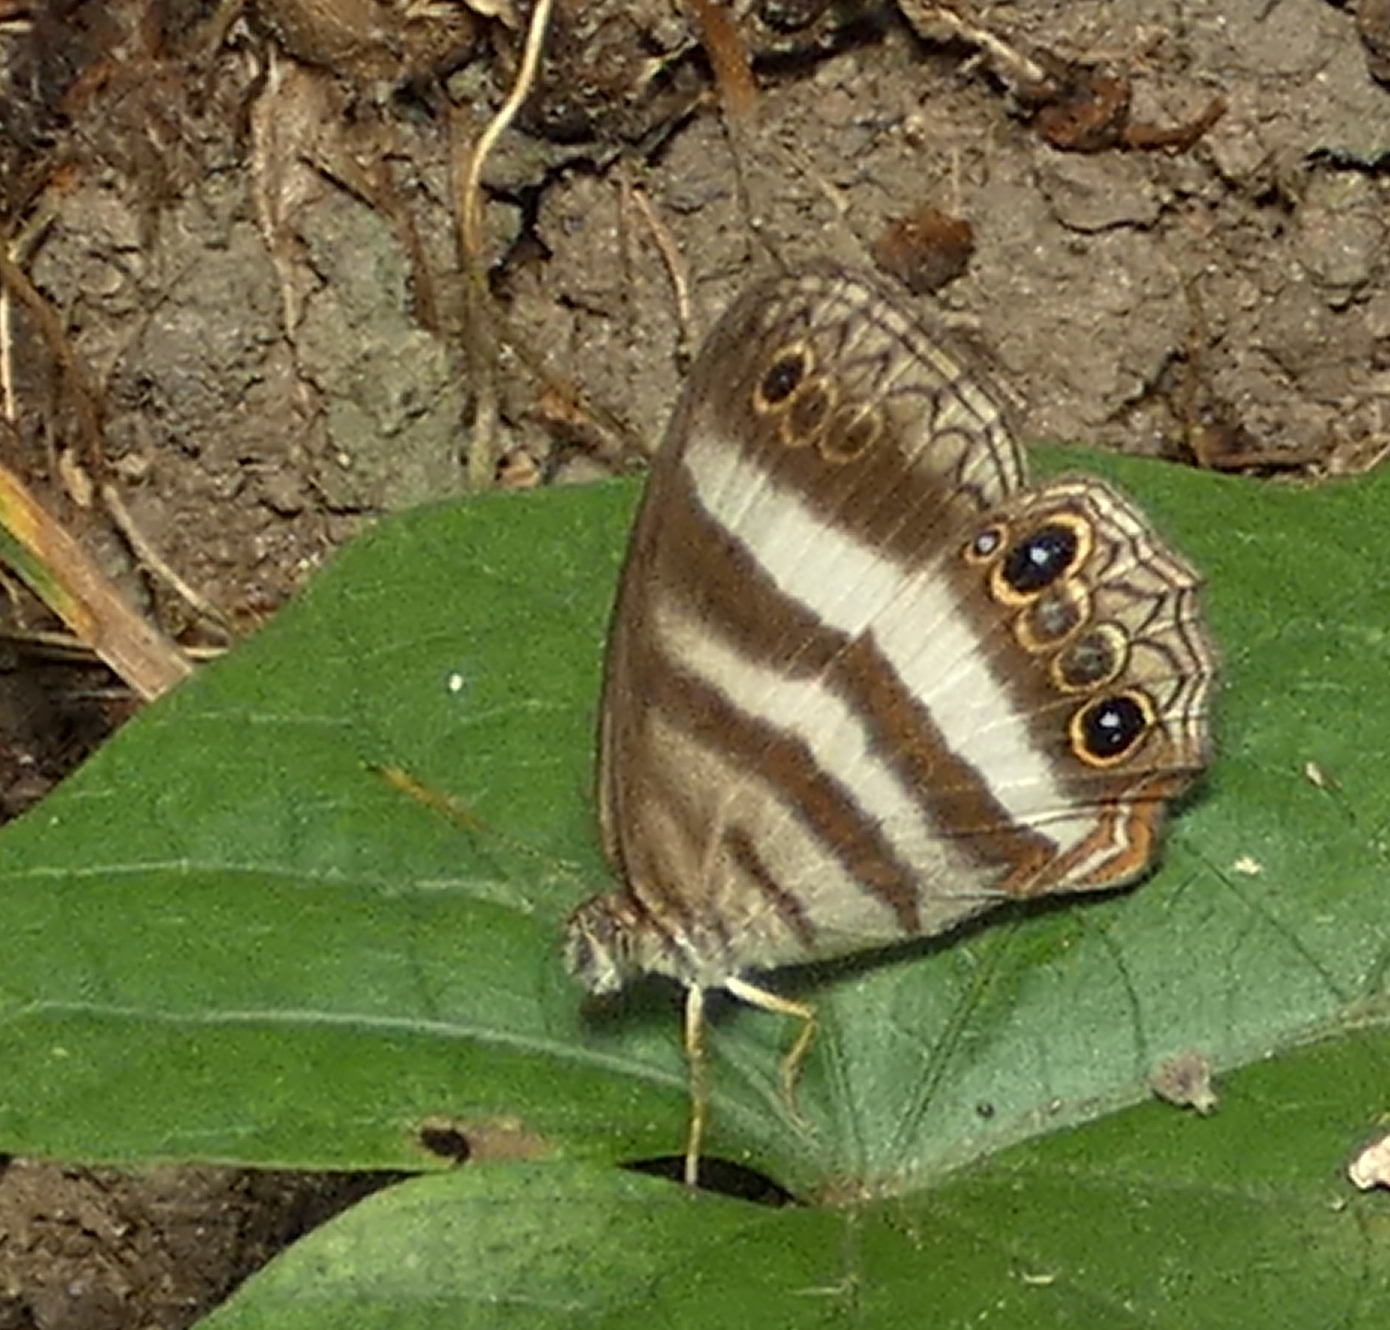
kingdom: Animalia
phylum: Arthropoda
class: Insecta
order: Lepidoptera
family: Nymphalidae
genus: Pareuptychia
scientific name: Pareuptychia hesione
